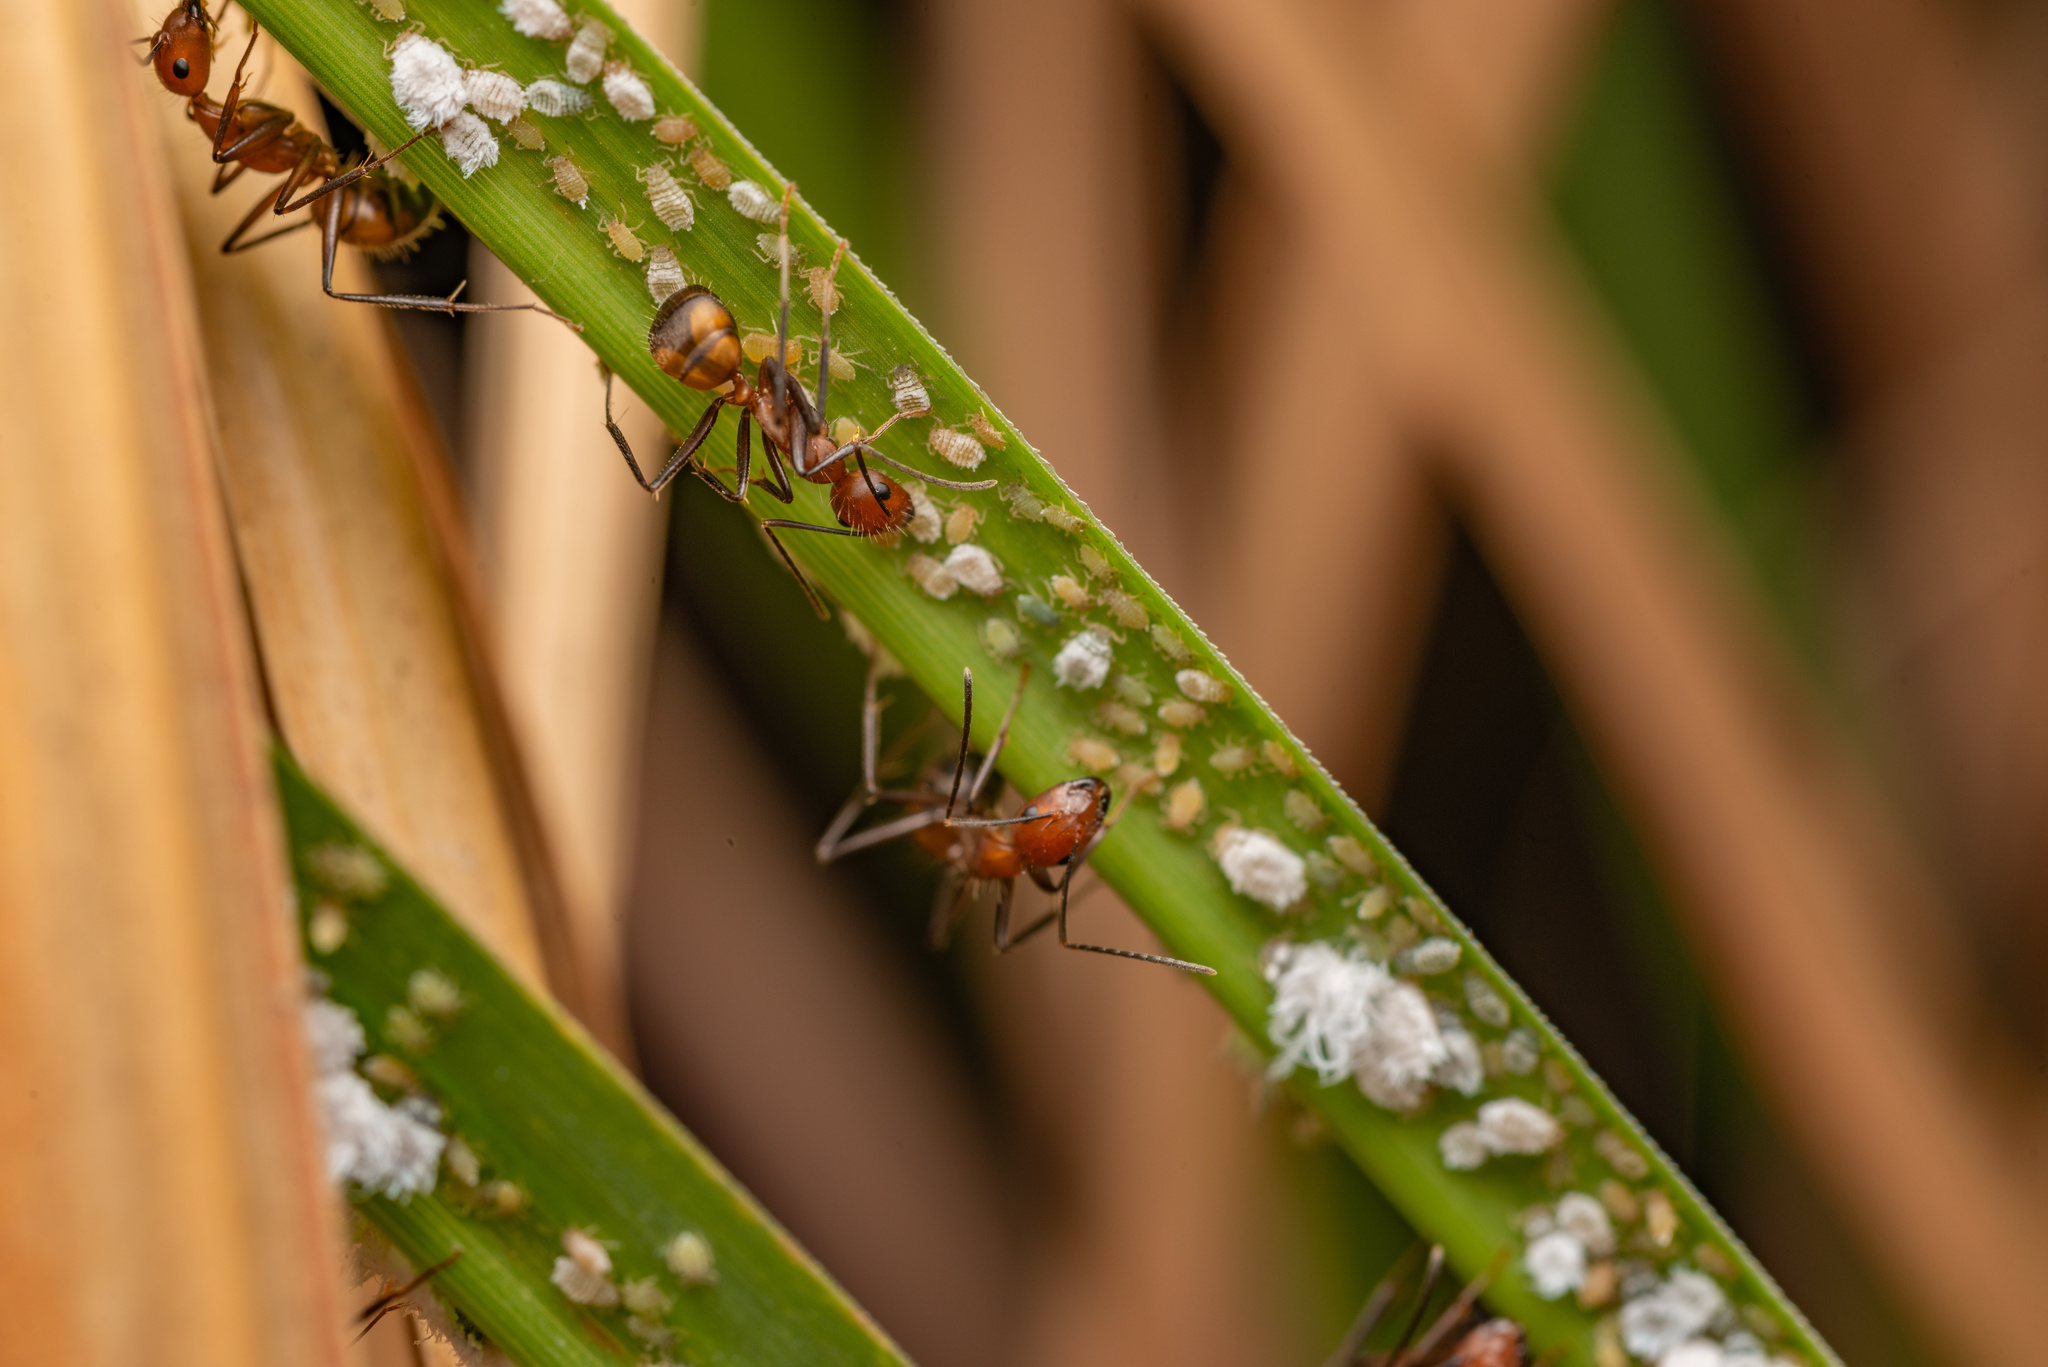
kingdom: Animalia
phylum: Arthropoda
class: Insecta
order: Hymenoptera
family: Formicidae
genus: Camponotus
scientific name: Camponotus nicobarensis
